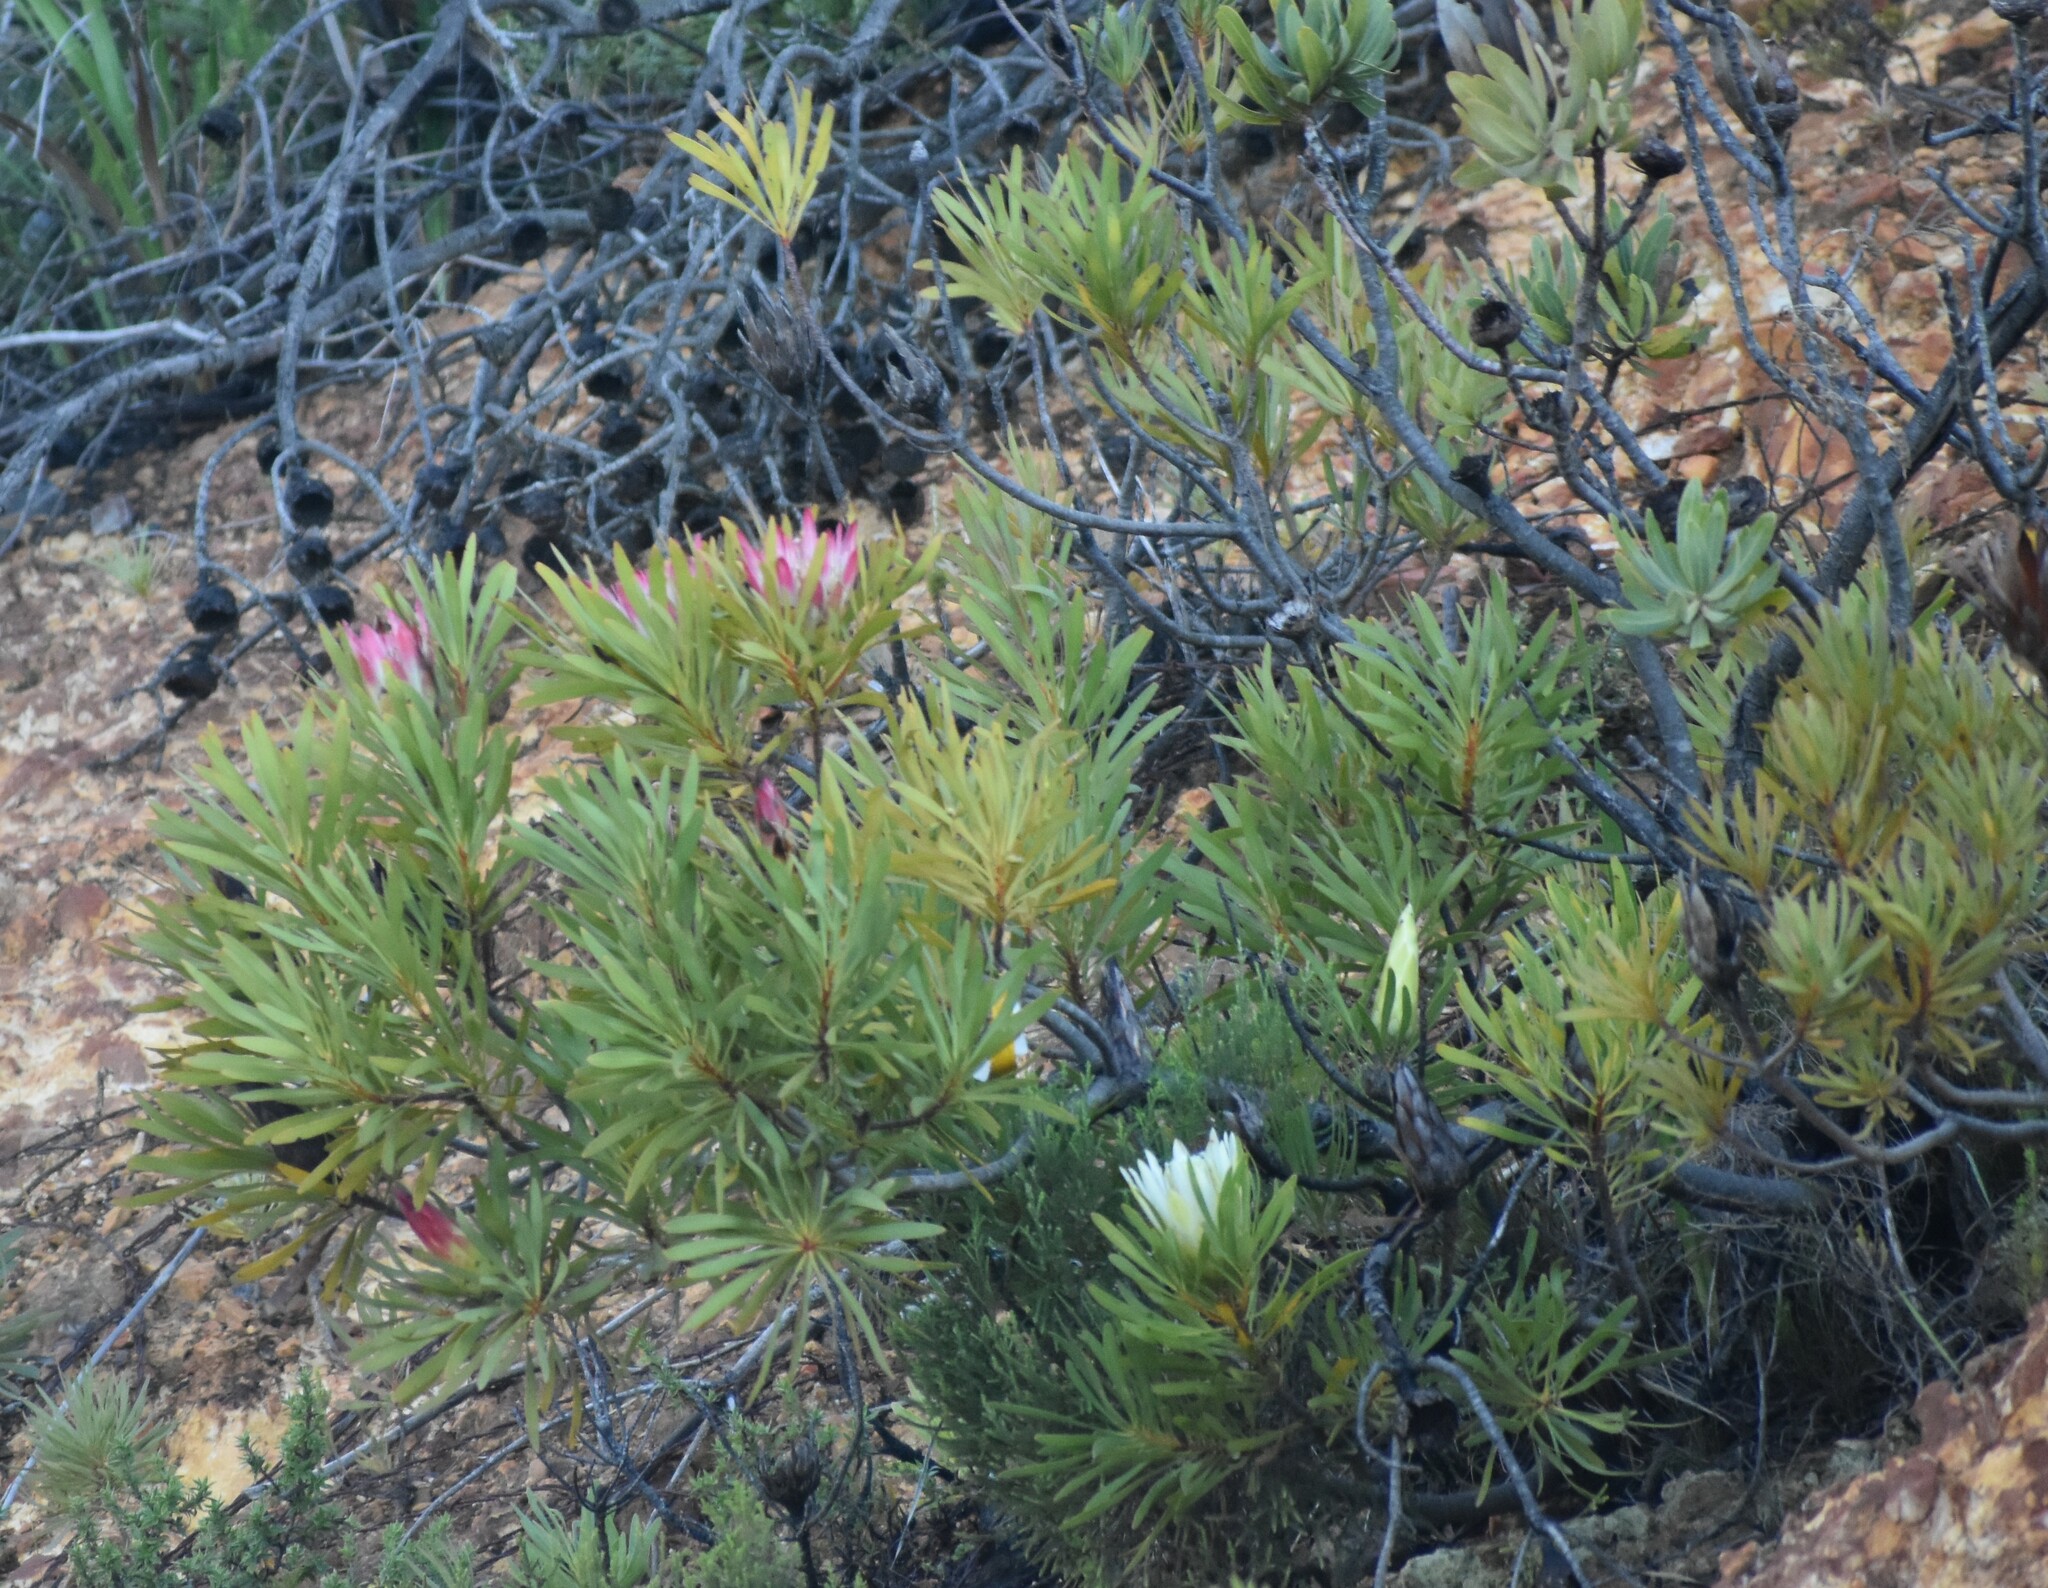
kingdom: Plantae
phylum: Tracheophyta
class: Magnoliopsida
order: Proteales
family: Proteaceae
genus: Protea
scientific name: Protea repens
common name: Sugarbush
